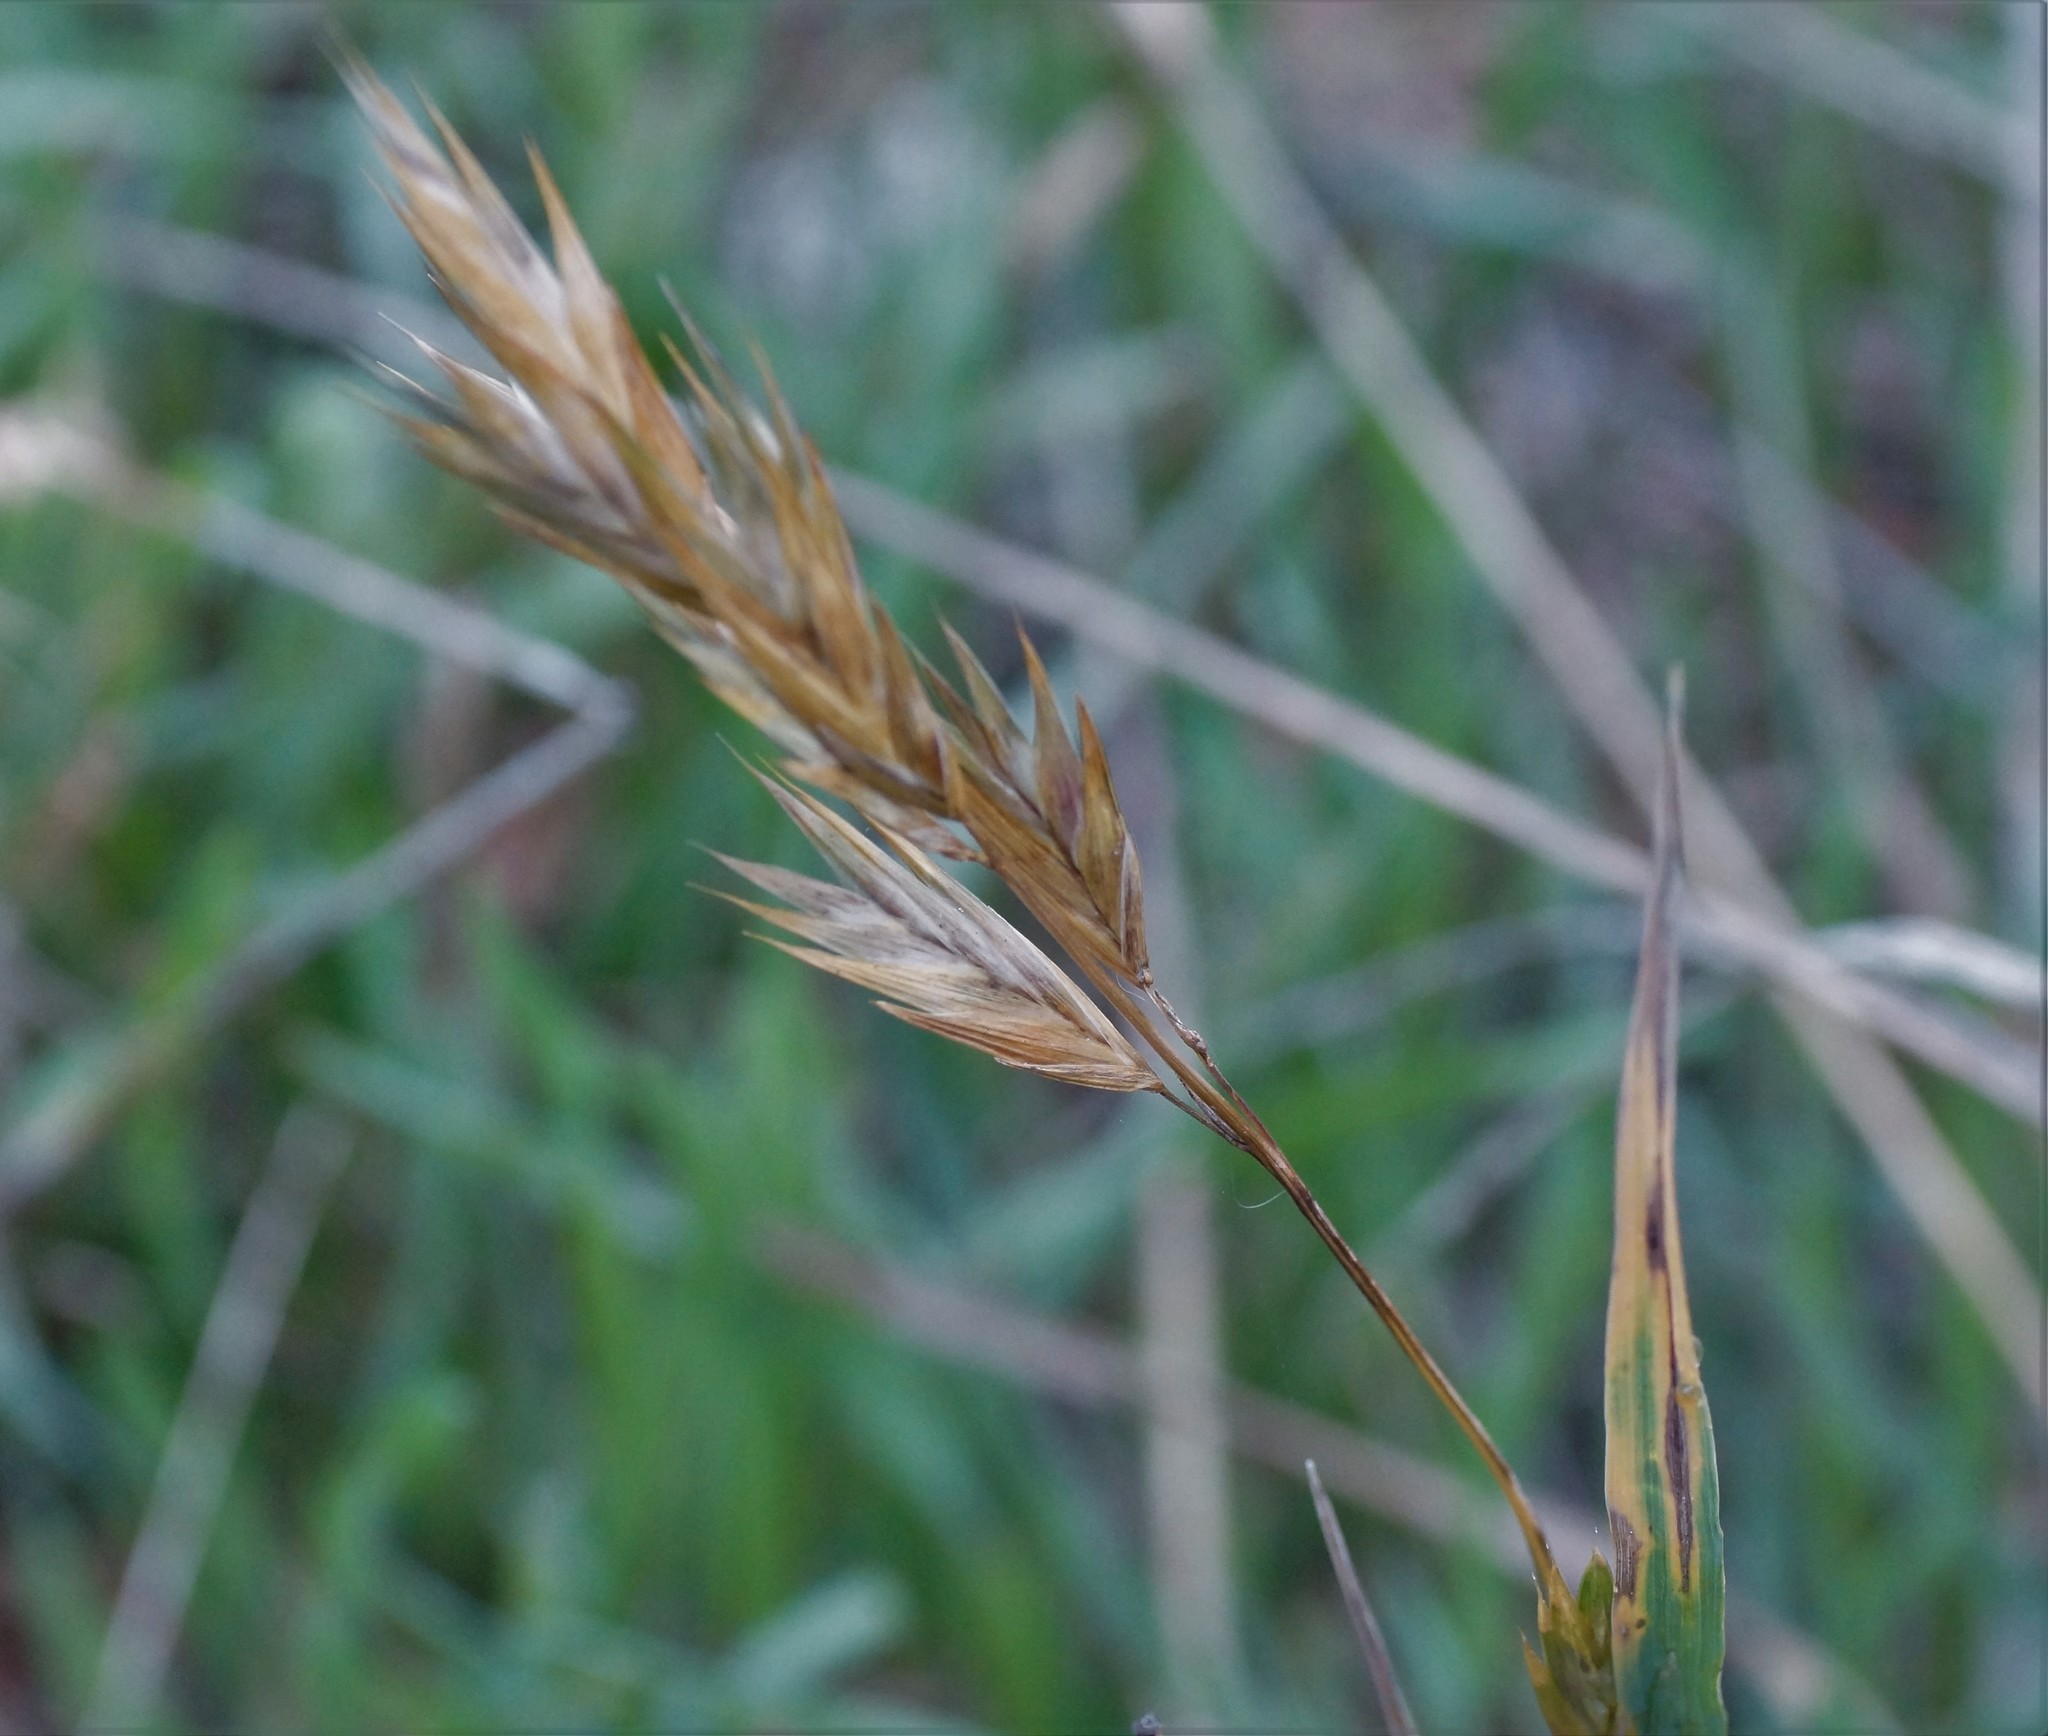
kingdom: Plantae
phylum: Tracheophyta
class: Liliopsida
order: Poales
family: Poaceae
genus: Bromus
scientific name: Bromus catharticus
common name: Rescuegrass
